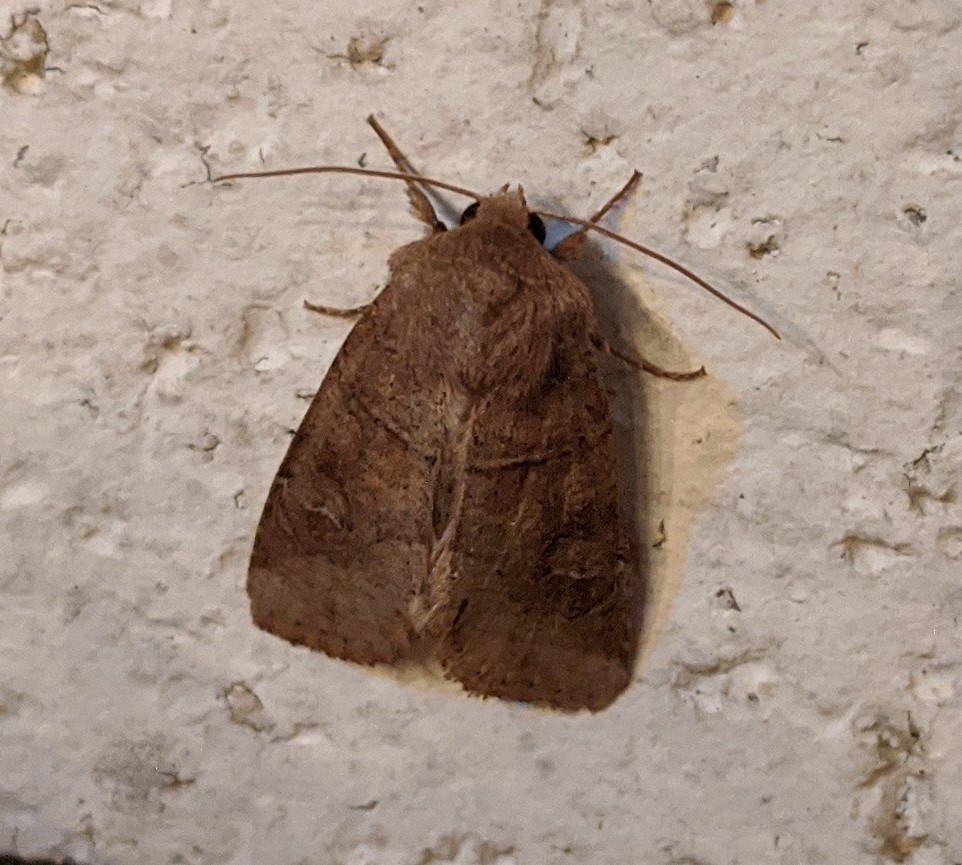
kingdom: Animalia
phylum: Arthropoda
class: Insecta
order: Lepidoptera
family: Noctuidae
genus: Crocigrapha
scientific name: Crocigrapha normani
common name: Norman's quaker
